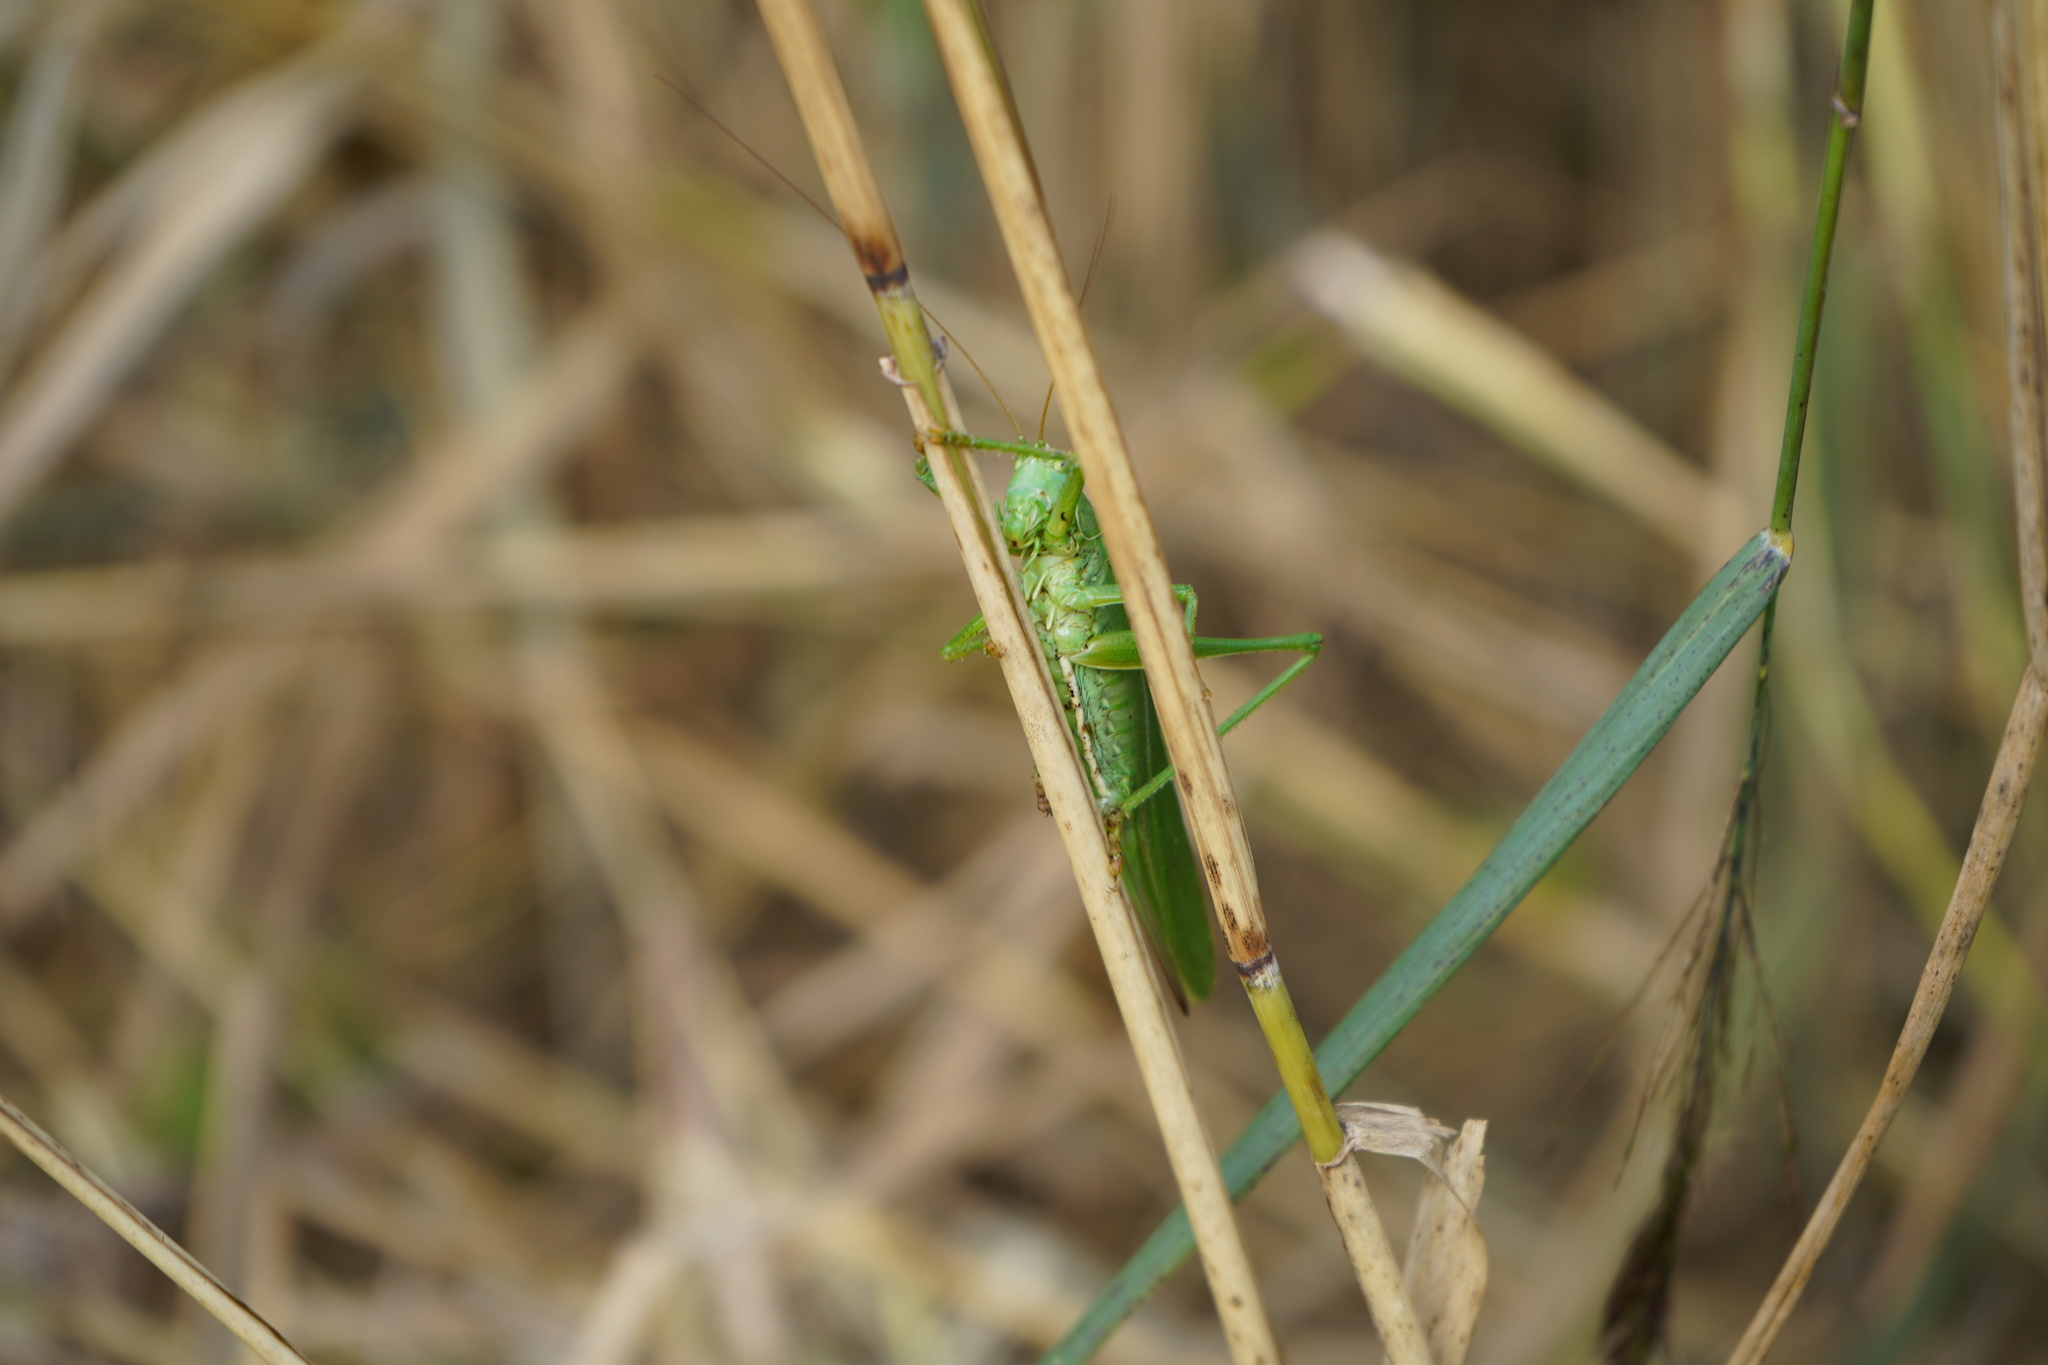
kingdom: Animalia
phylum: Arthropoda
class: Insecta
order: Orthoptera
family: Tettigoniidae
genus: Tettigonia
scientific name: Tettigonia viridissima
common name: Great green bush-cricket
